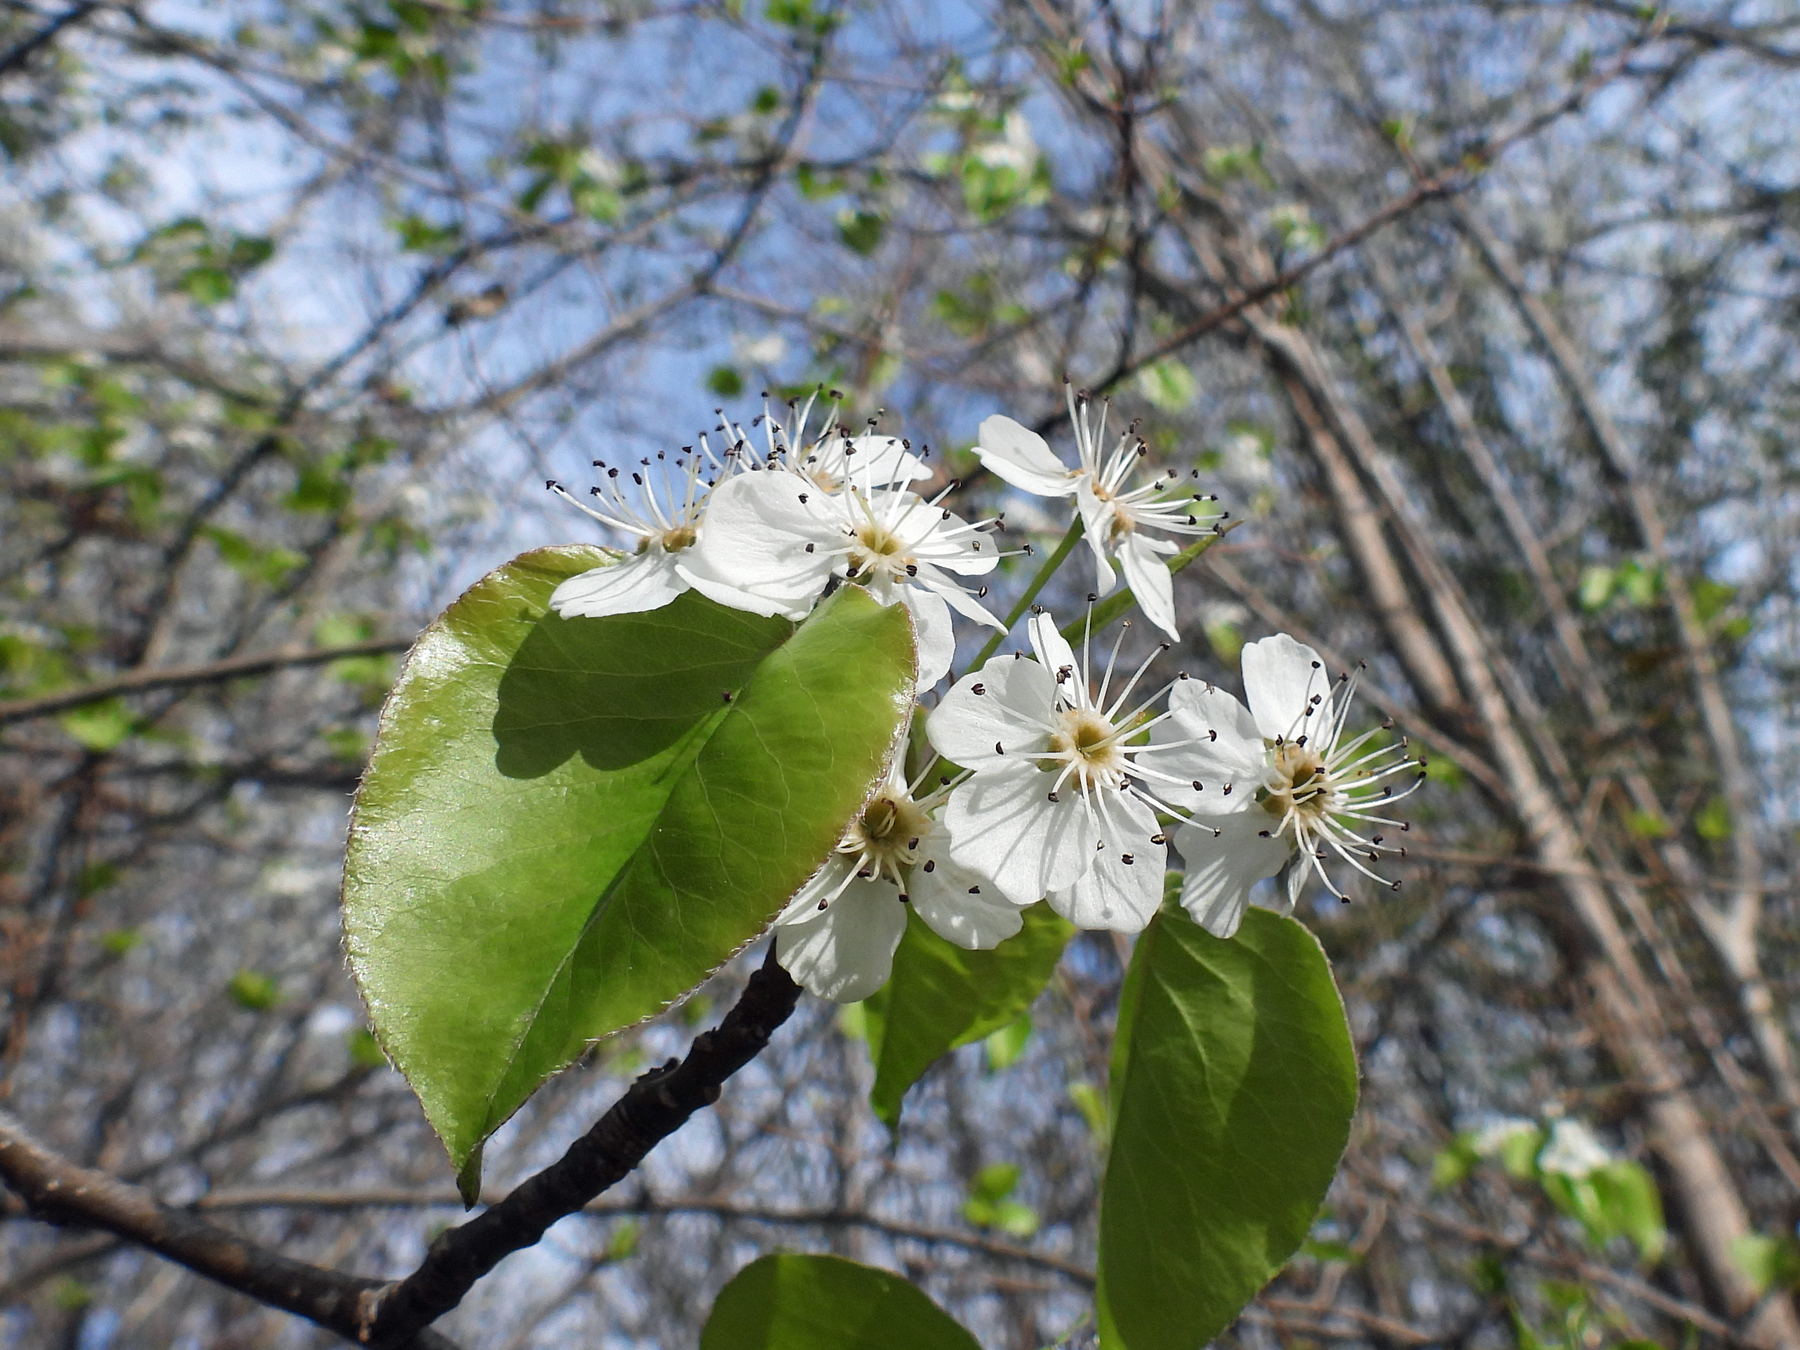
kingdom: Plantae
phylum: Tracheophyta
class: Magnoliopsida
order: Rosales
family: Rosaceae
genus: Pyrus
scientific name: Pyrus calleryana
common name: Callery pear
